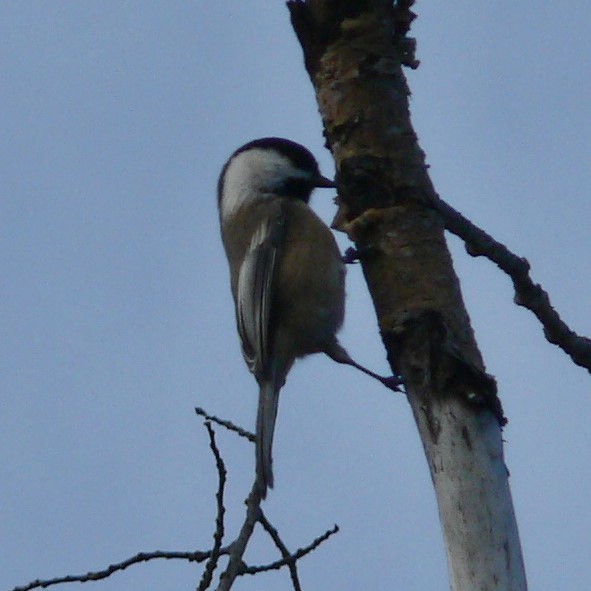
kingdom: Animalia
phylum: Chordata
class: Aves
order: Passeriformes
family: Paridae
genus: Poecile
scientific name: Poecile atricapillus
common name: Black-capped chickadee
